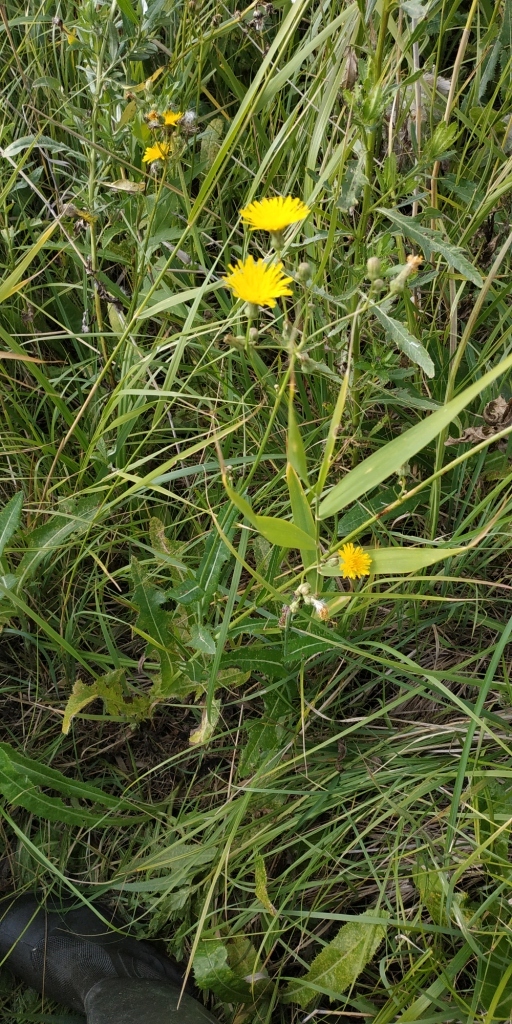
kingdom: Plantae
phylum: Tracheophyta
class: Magnoliopsida
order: Asterales
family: Asteraceae
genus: Sonchus
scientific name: Sonchus arvensis
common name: Perennial sow-thistle
